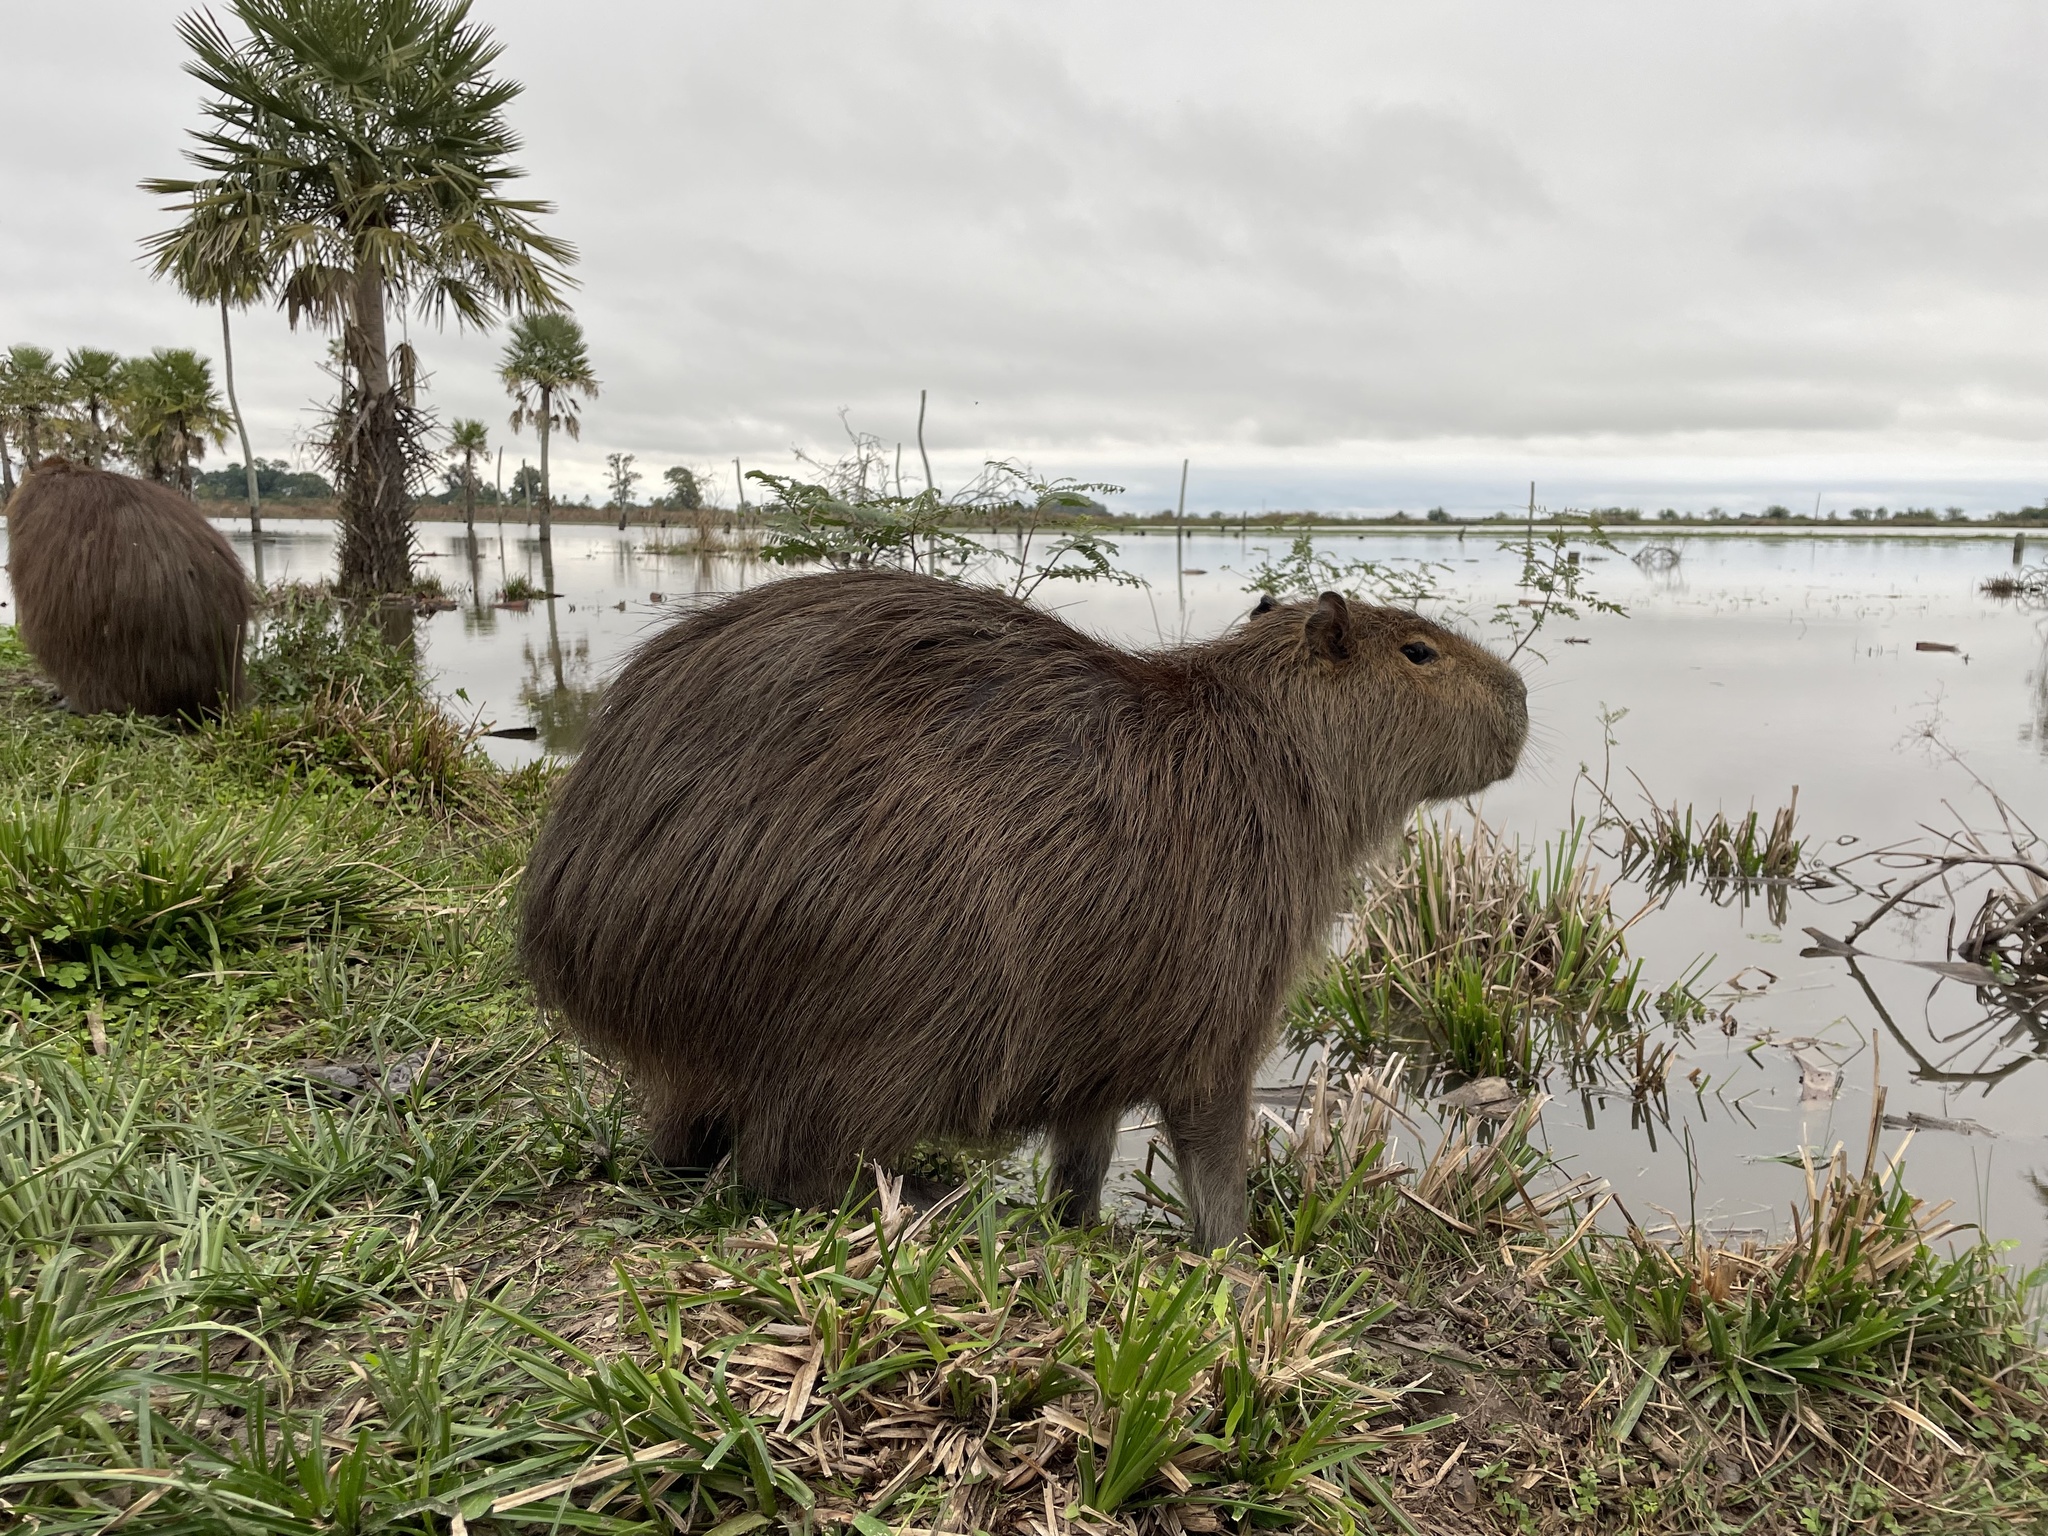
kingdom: Animalia
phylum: Chordata
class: Mammalia
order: Rodentia
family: Caviidae
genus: Hydrochoerus
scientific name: Hydrochoerus hydrochaeris
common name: Capybara
